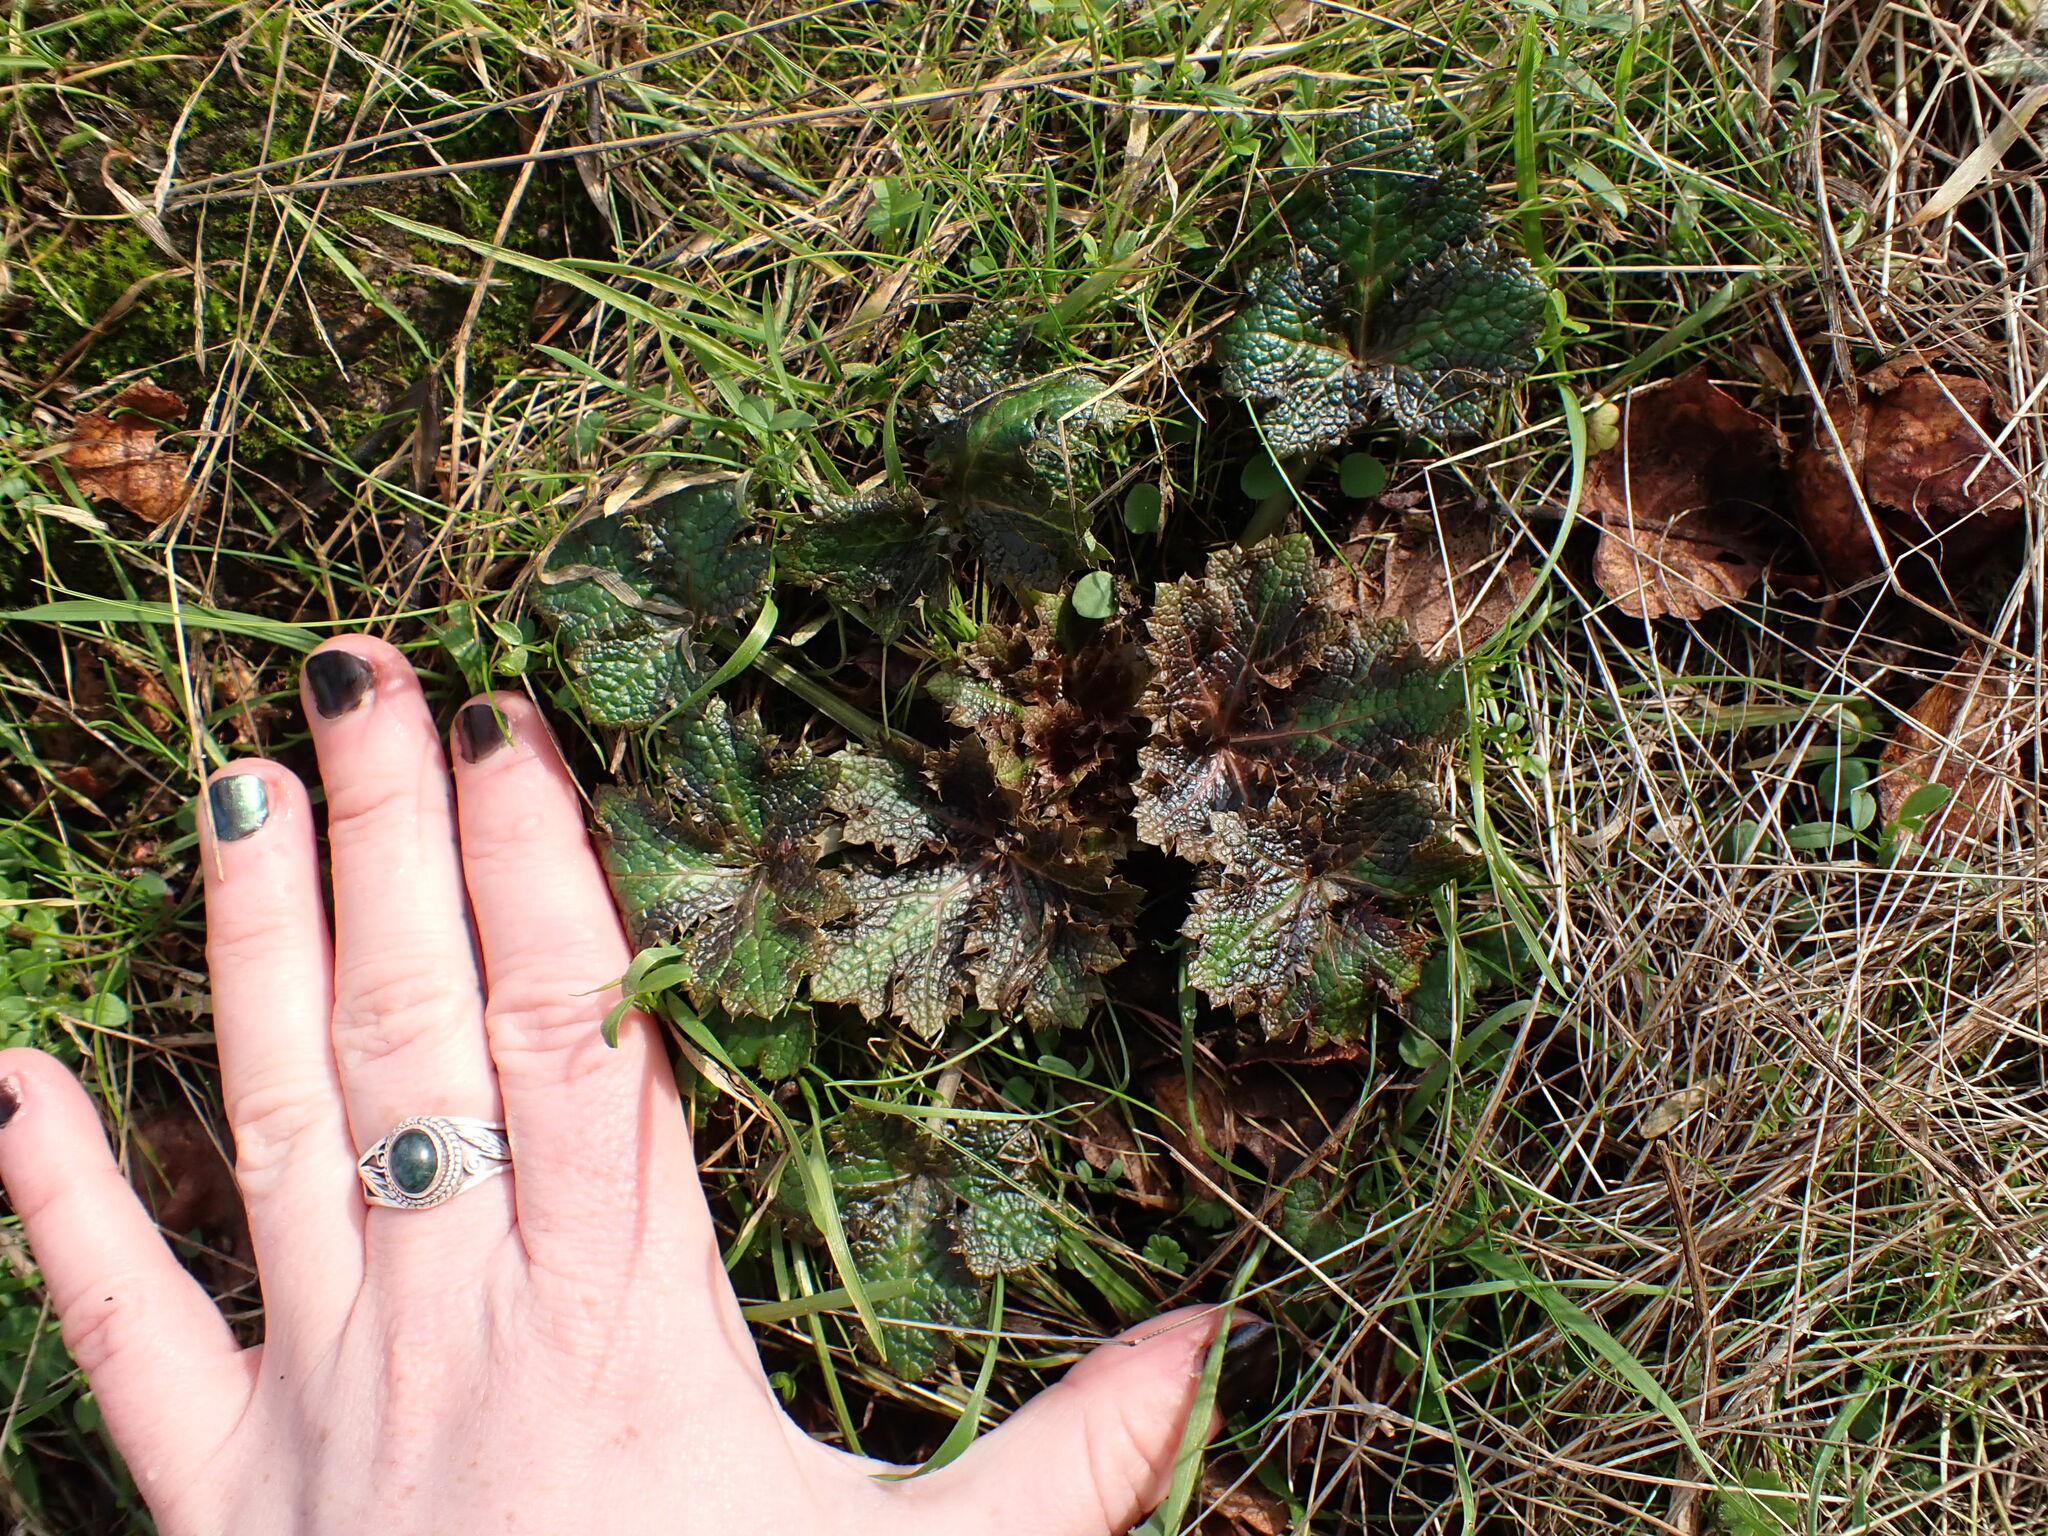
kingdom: Plantae
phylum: Tracheophyta
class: Magnoliopsida
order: Apiales
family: Apiaceae
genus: Sanicula
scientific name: Sanicula crassicaulis
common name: Western snakeroot
